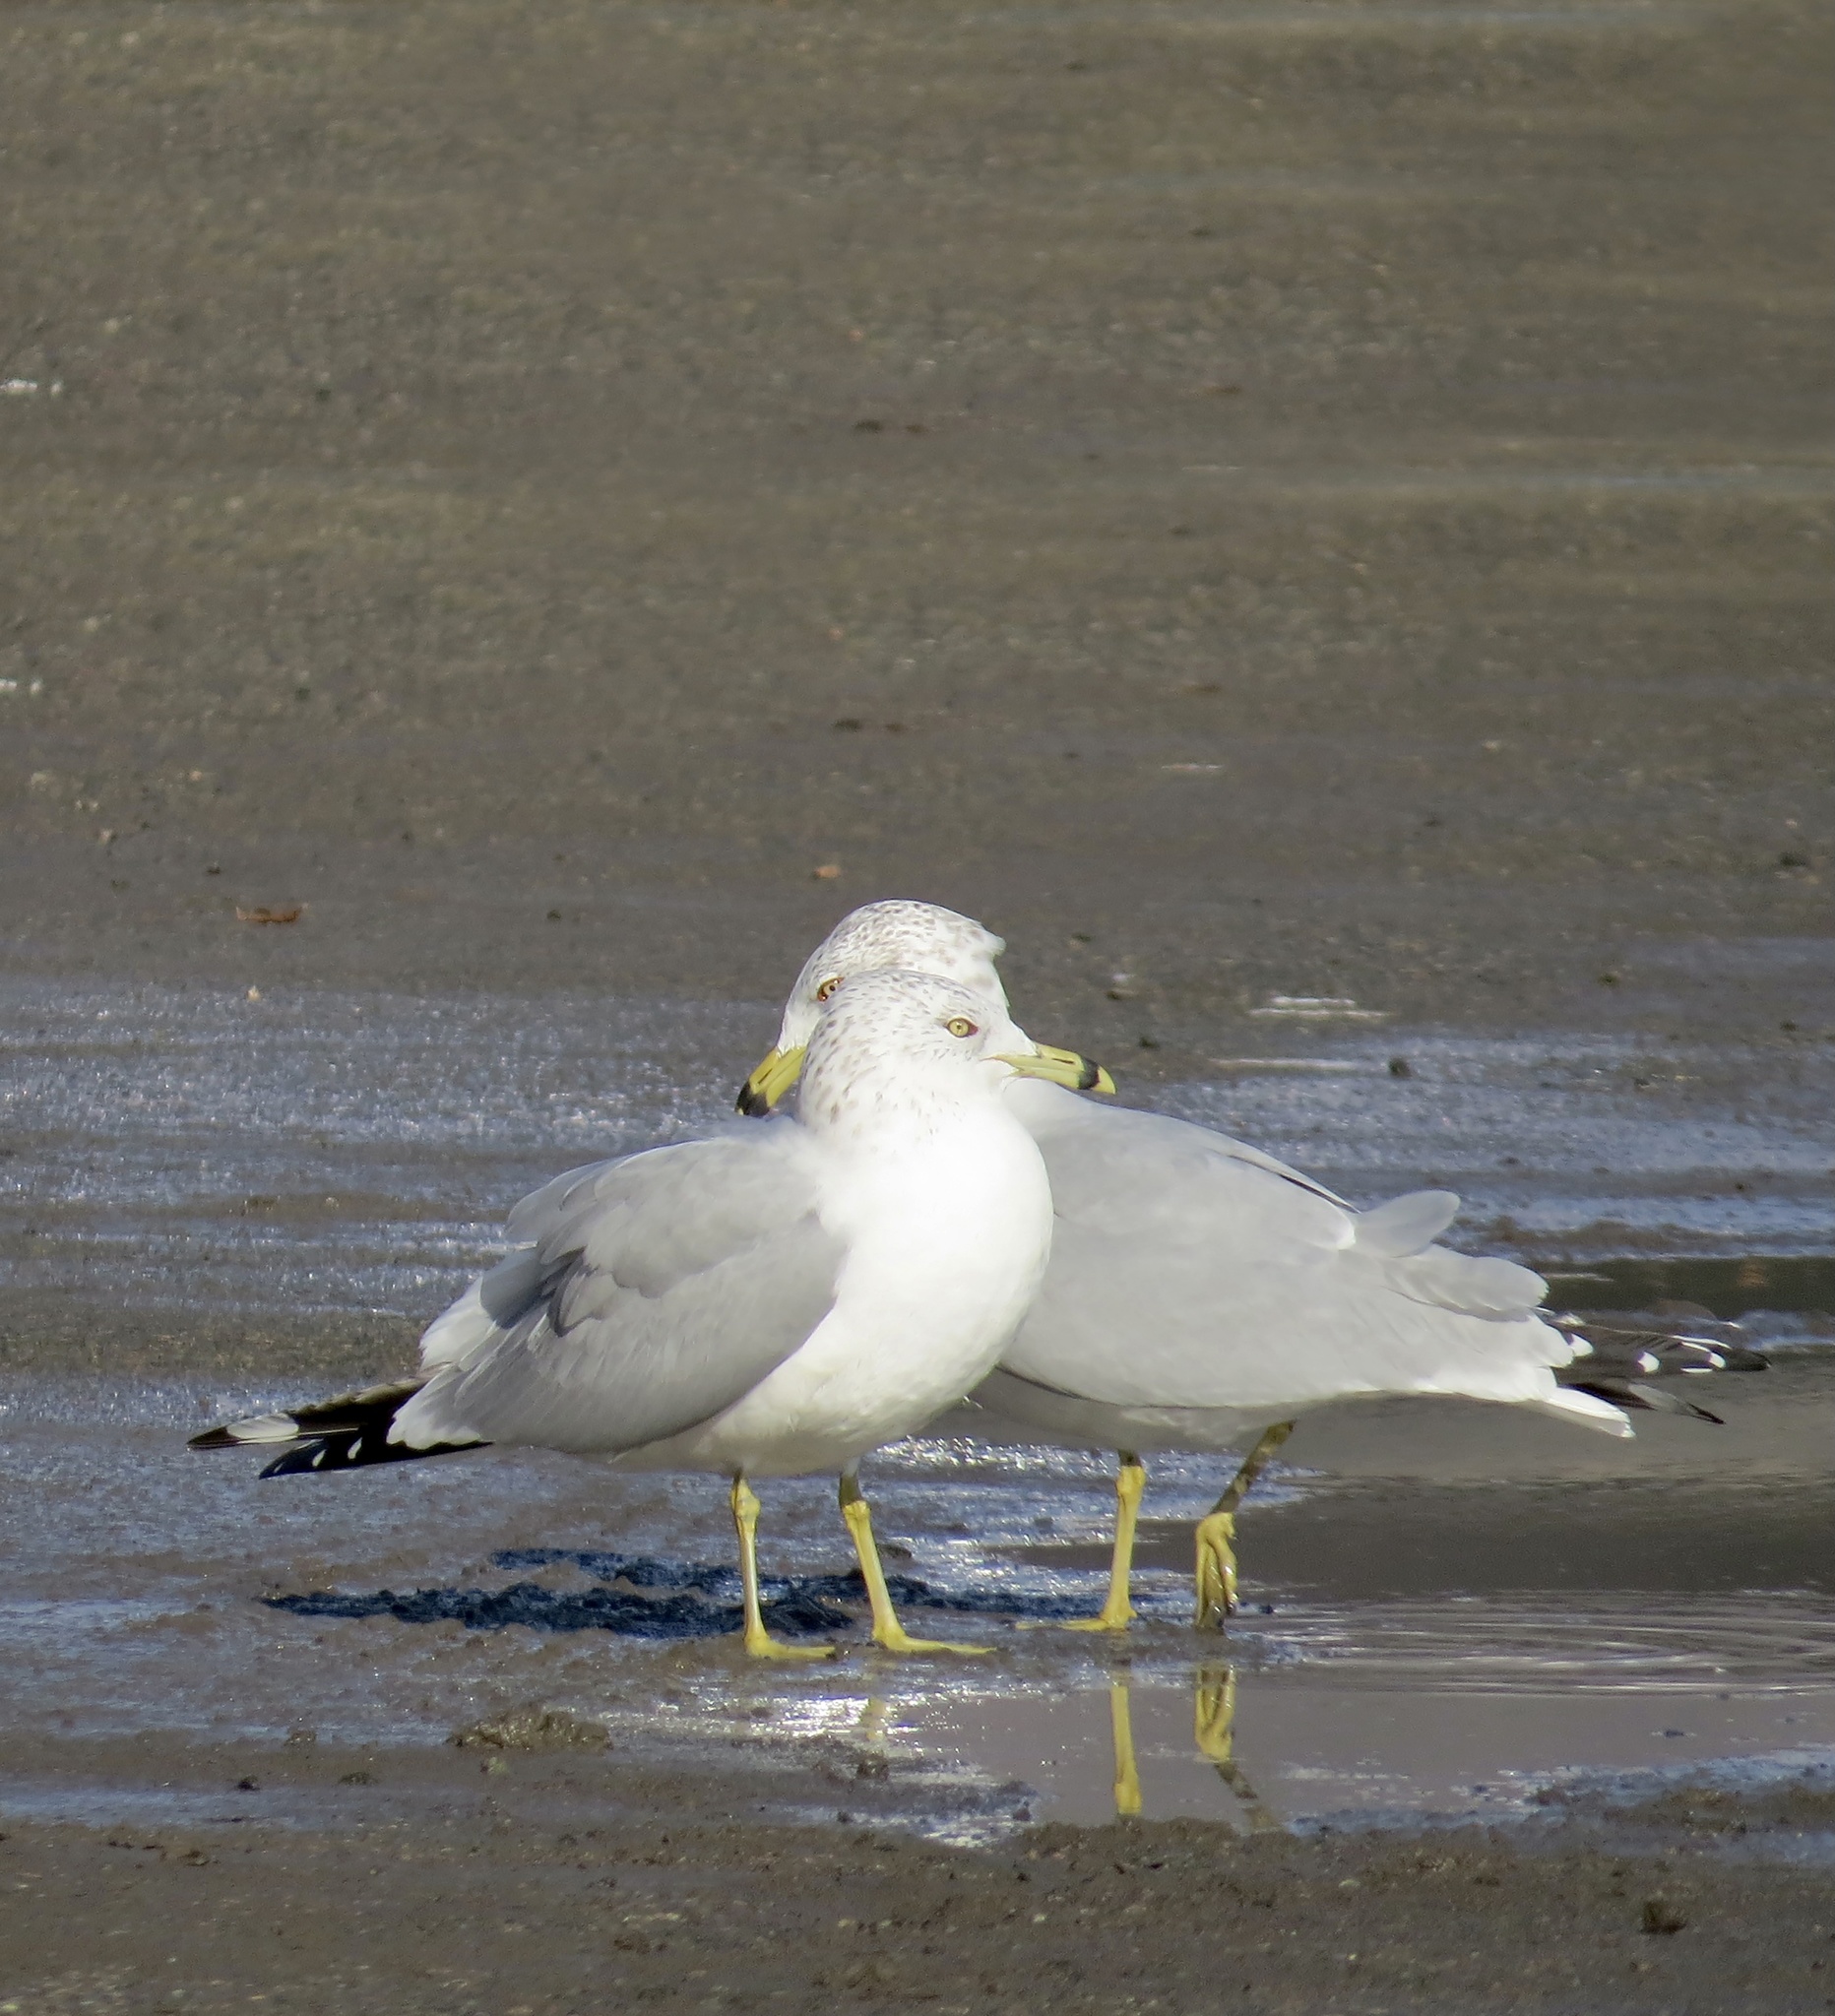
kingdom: Animalia
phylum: Chordata
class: Aves
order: Charadriiformes
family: Laridae
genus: Larus
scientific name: Larus delawarensis
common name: Ring-billed gull
